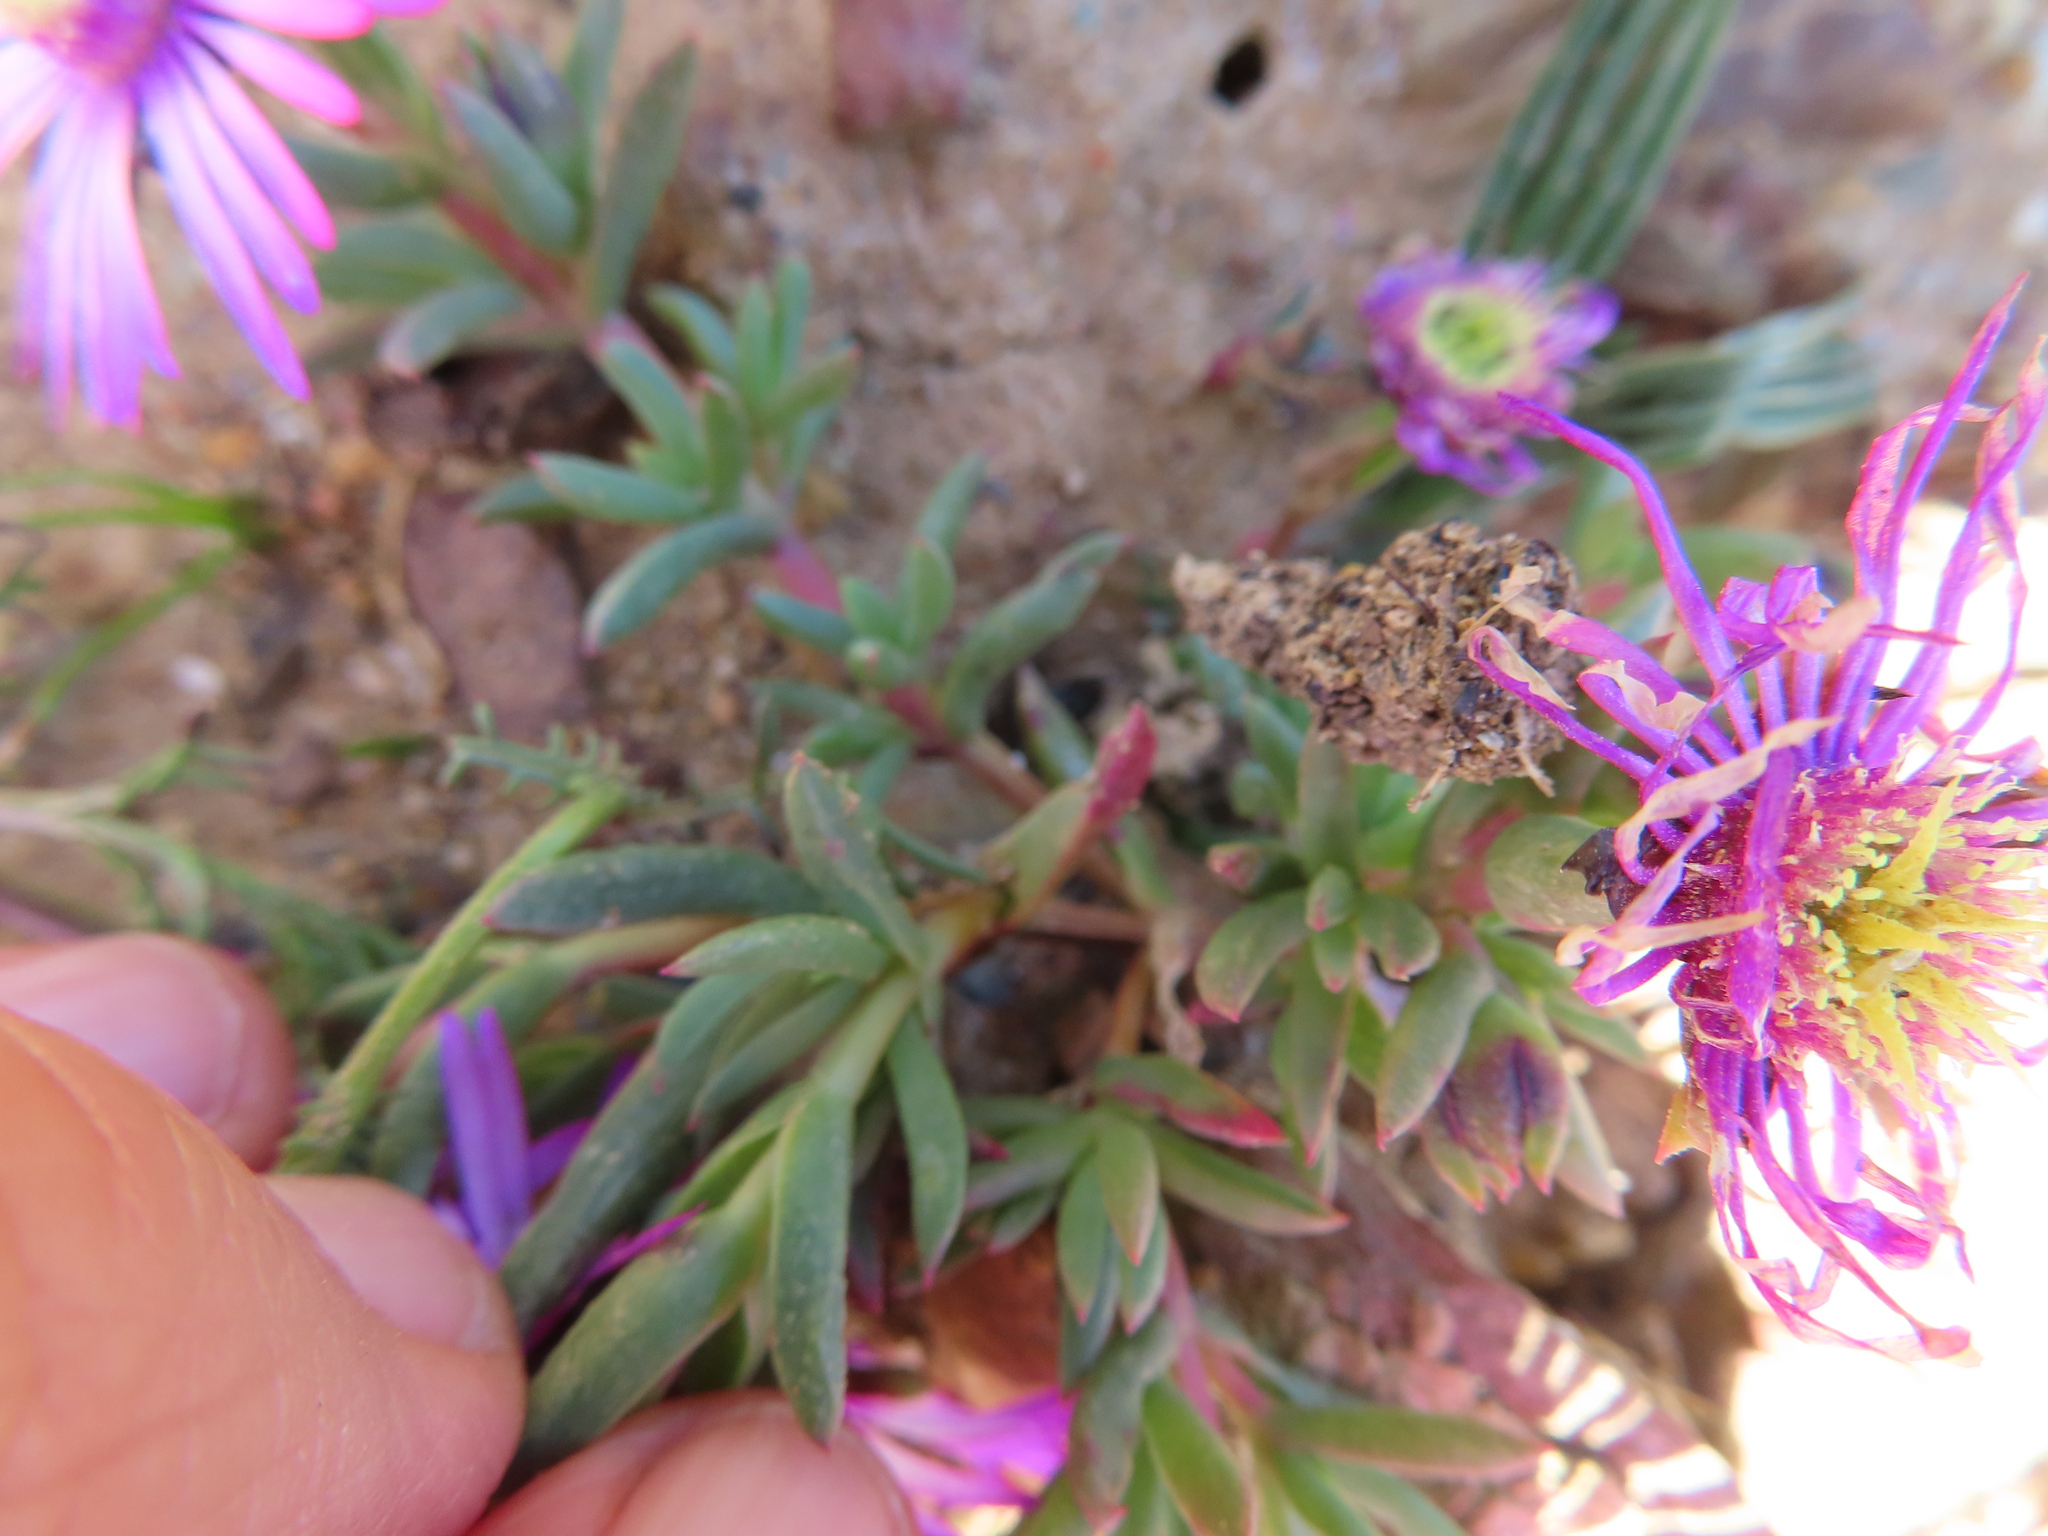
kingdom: Plantae
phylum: Tracheophyta
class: Magnoliopsida
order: Caryophyllales
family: Aizoaceae
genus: Lampranthus
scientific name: Lampranthus elegans
